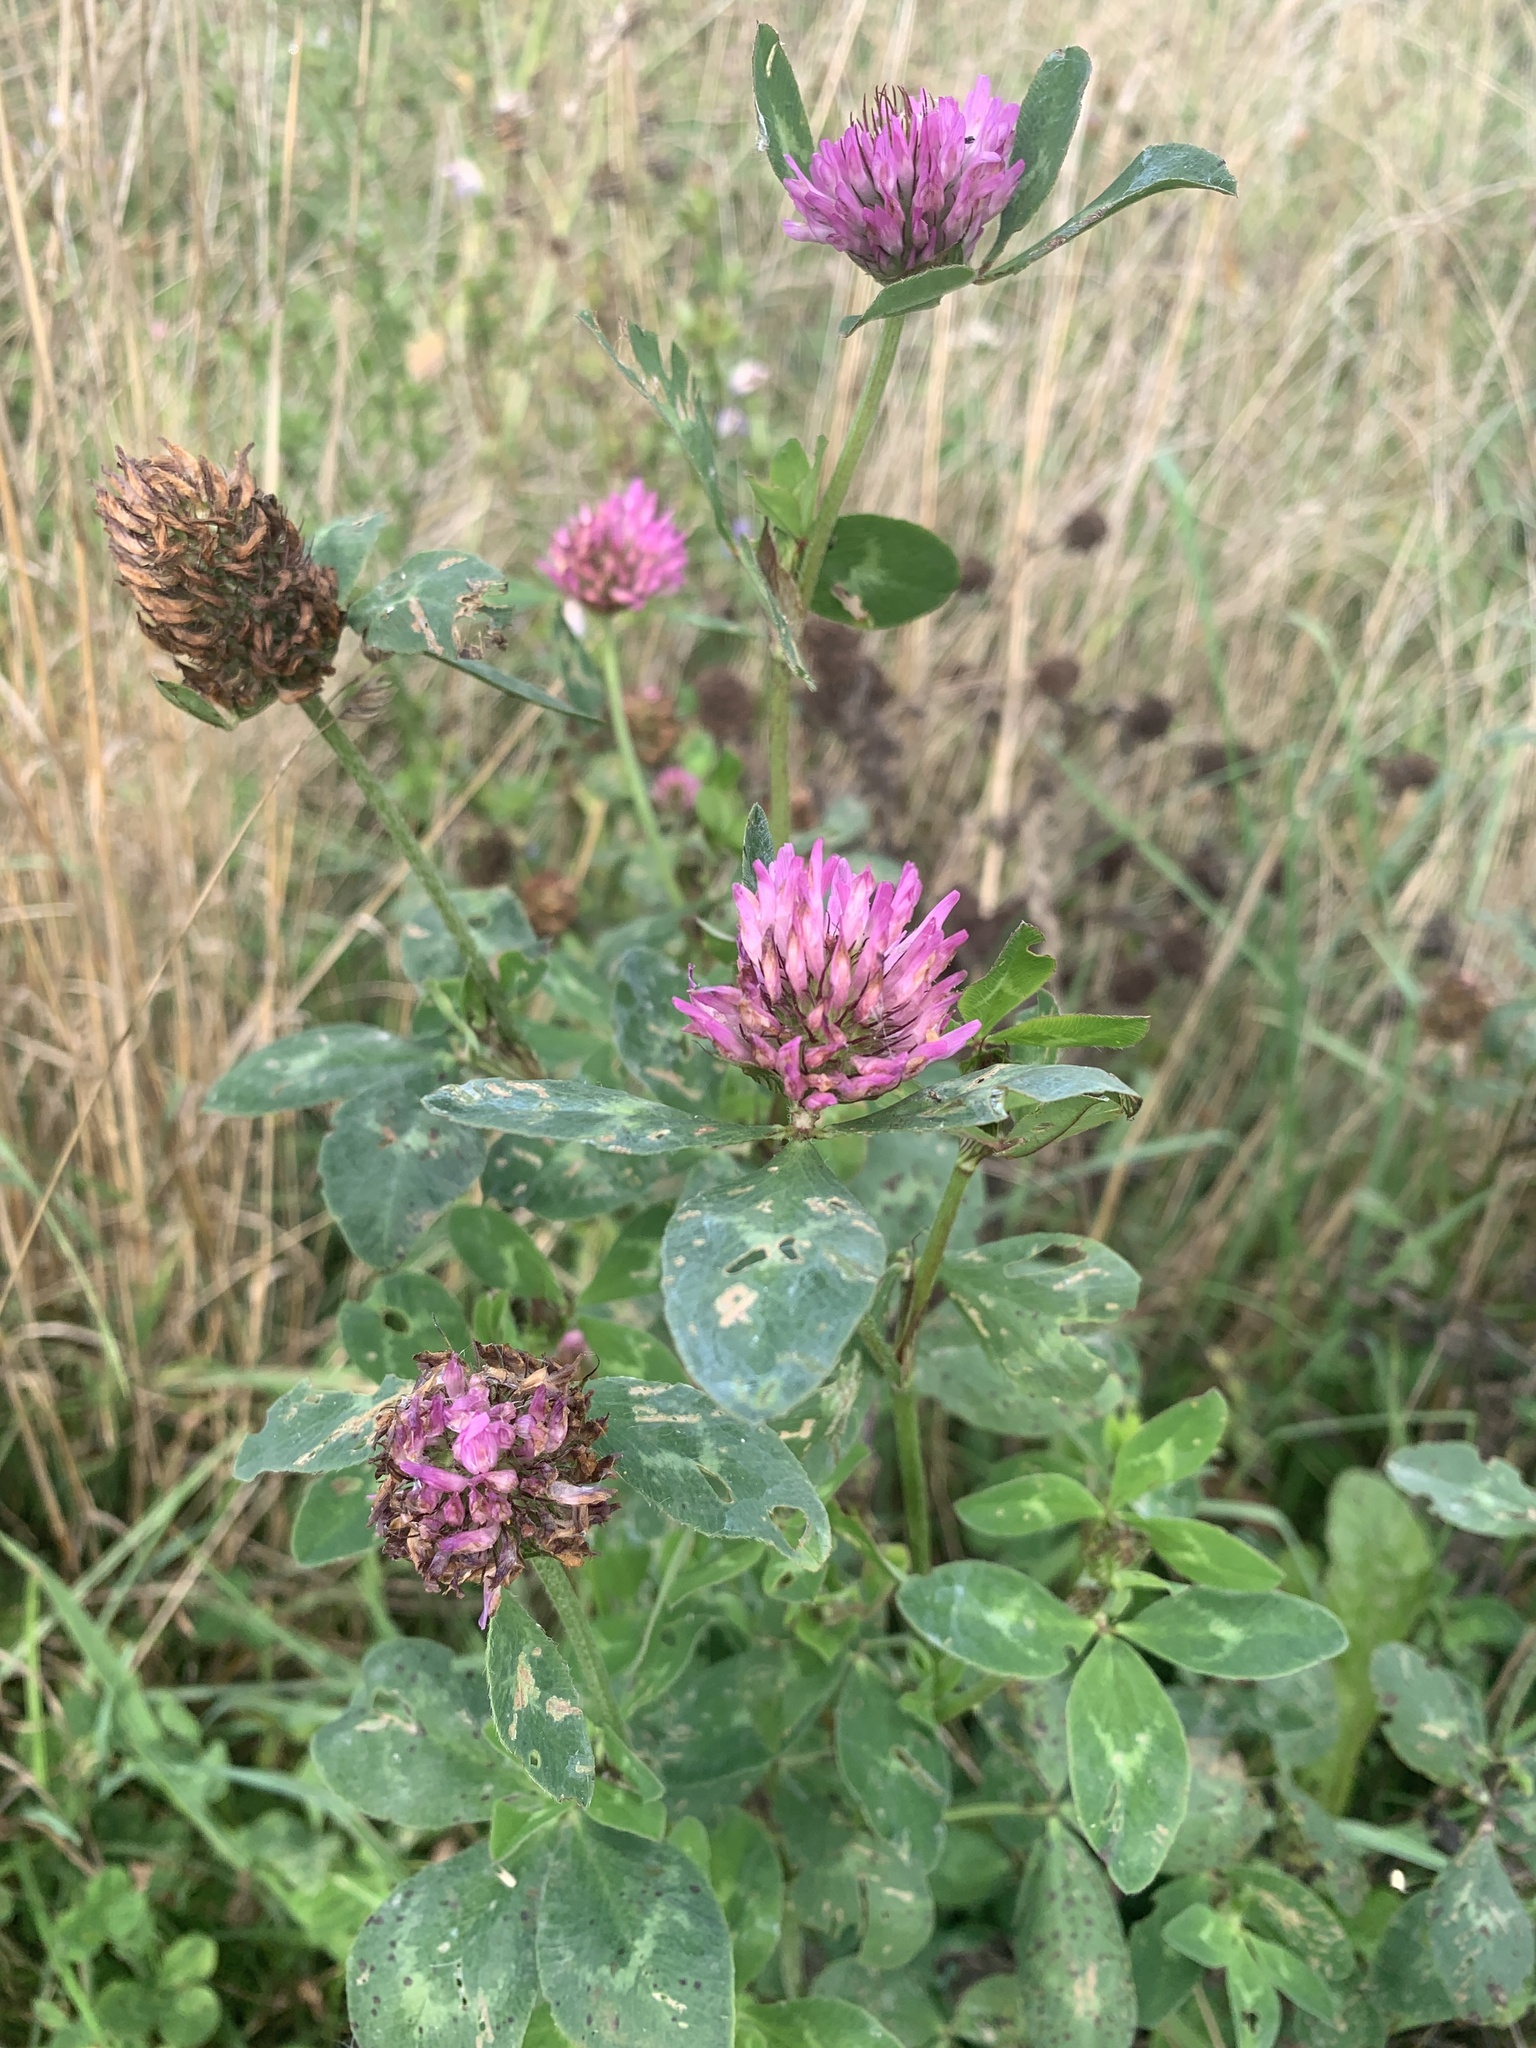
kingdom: Plantae
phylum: Tracheophyta
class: Magnoliopsida
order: Fabales
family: Fabaceae
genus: Trifolium
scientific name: Trifolium pratense
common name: Red clover
